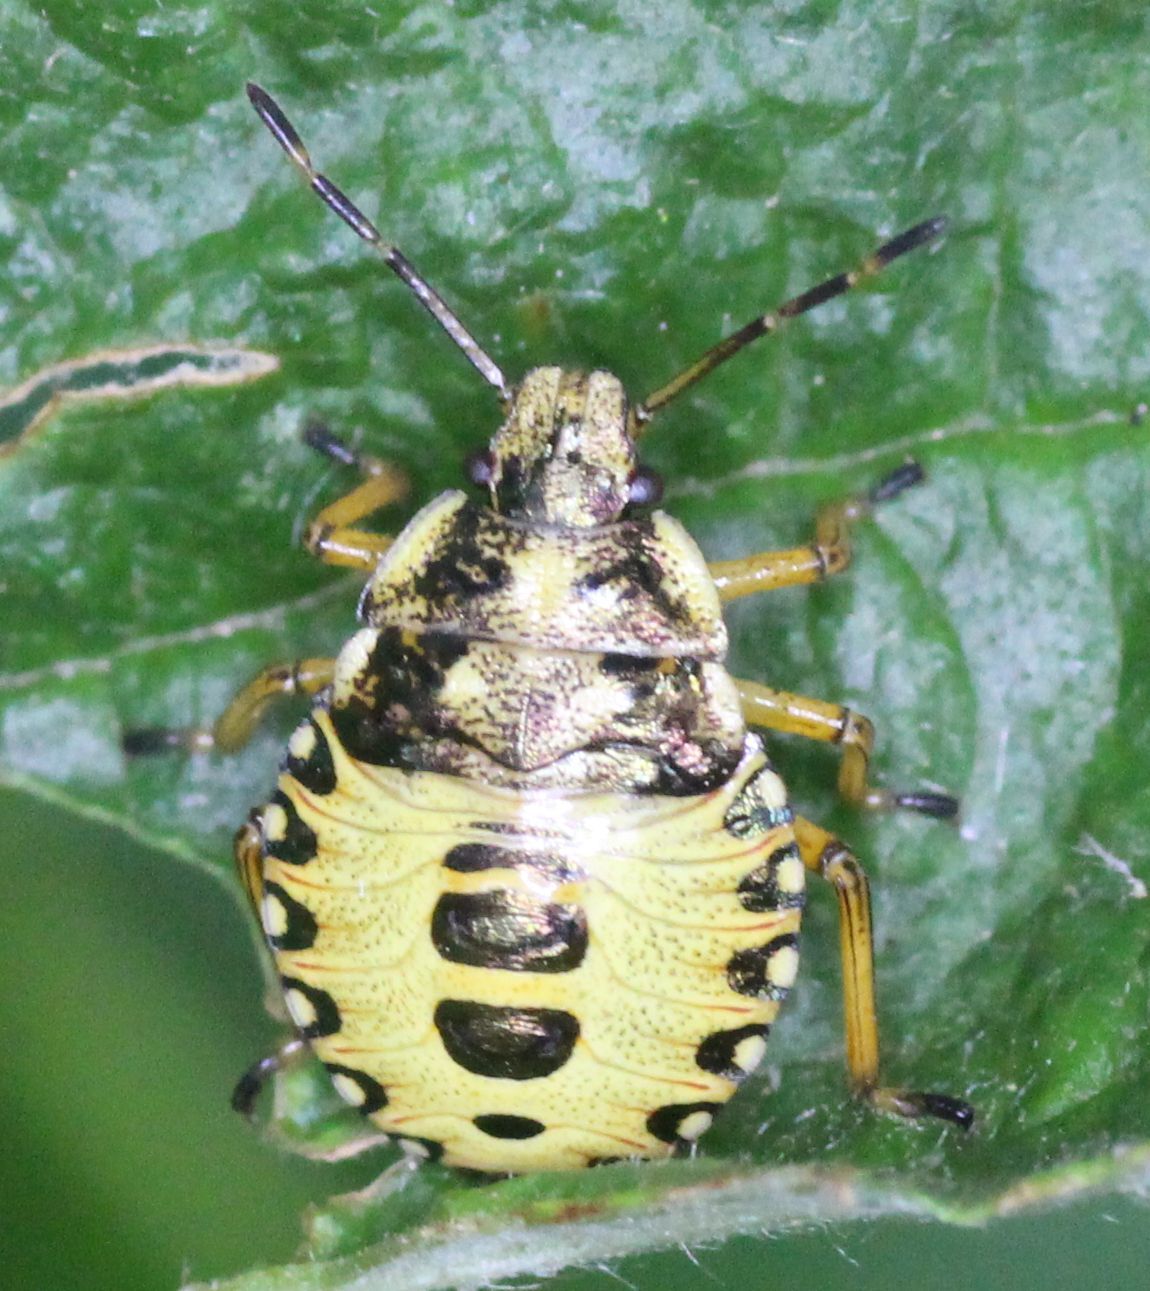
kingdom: Animalia
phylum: Arthropoda
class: Insecta
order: Hemiptera
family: Pentatomidae
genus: Arma
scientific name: Arma custos
